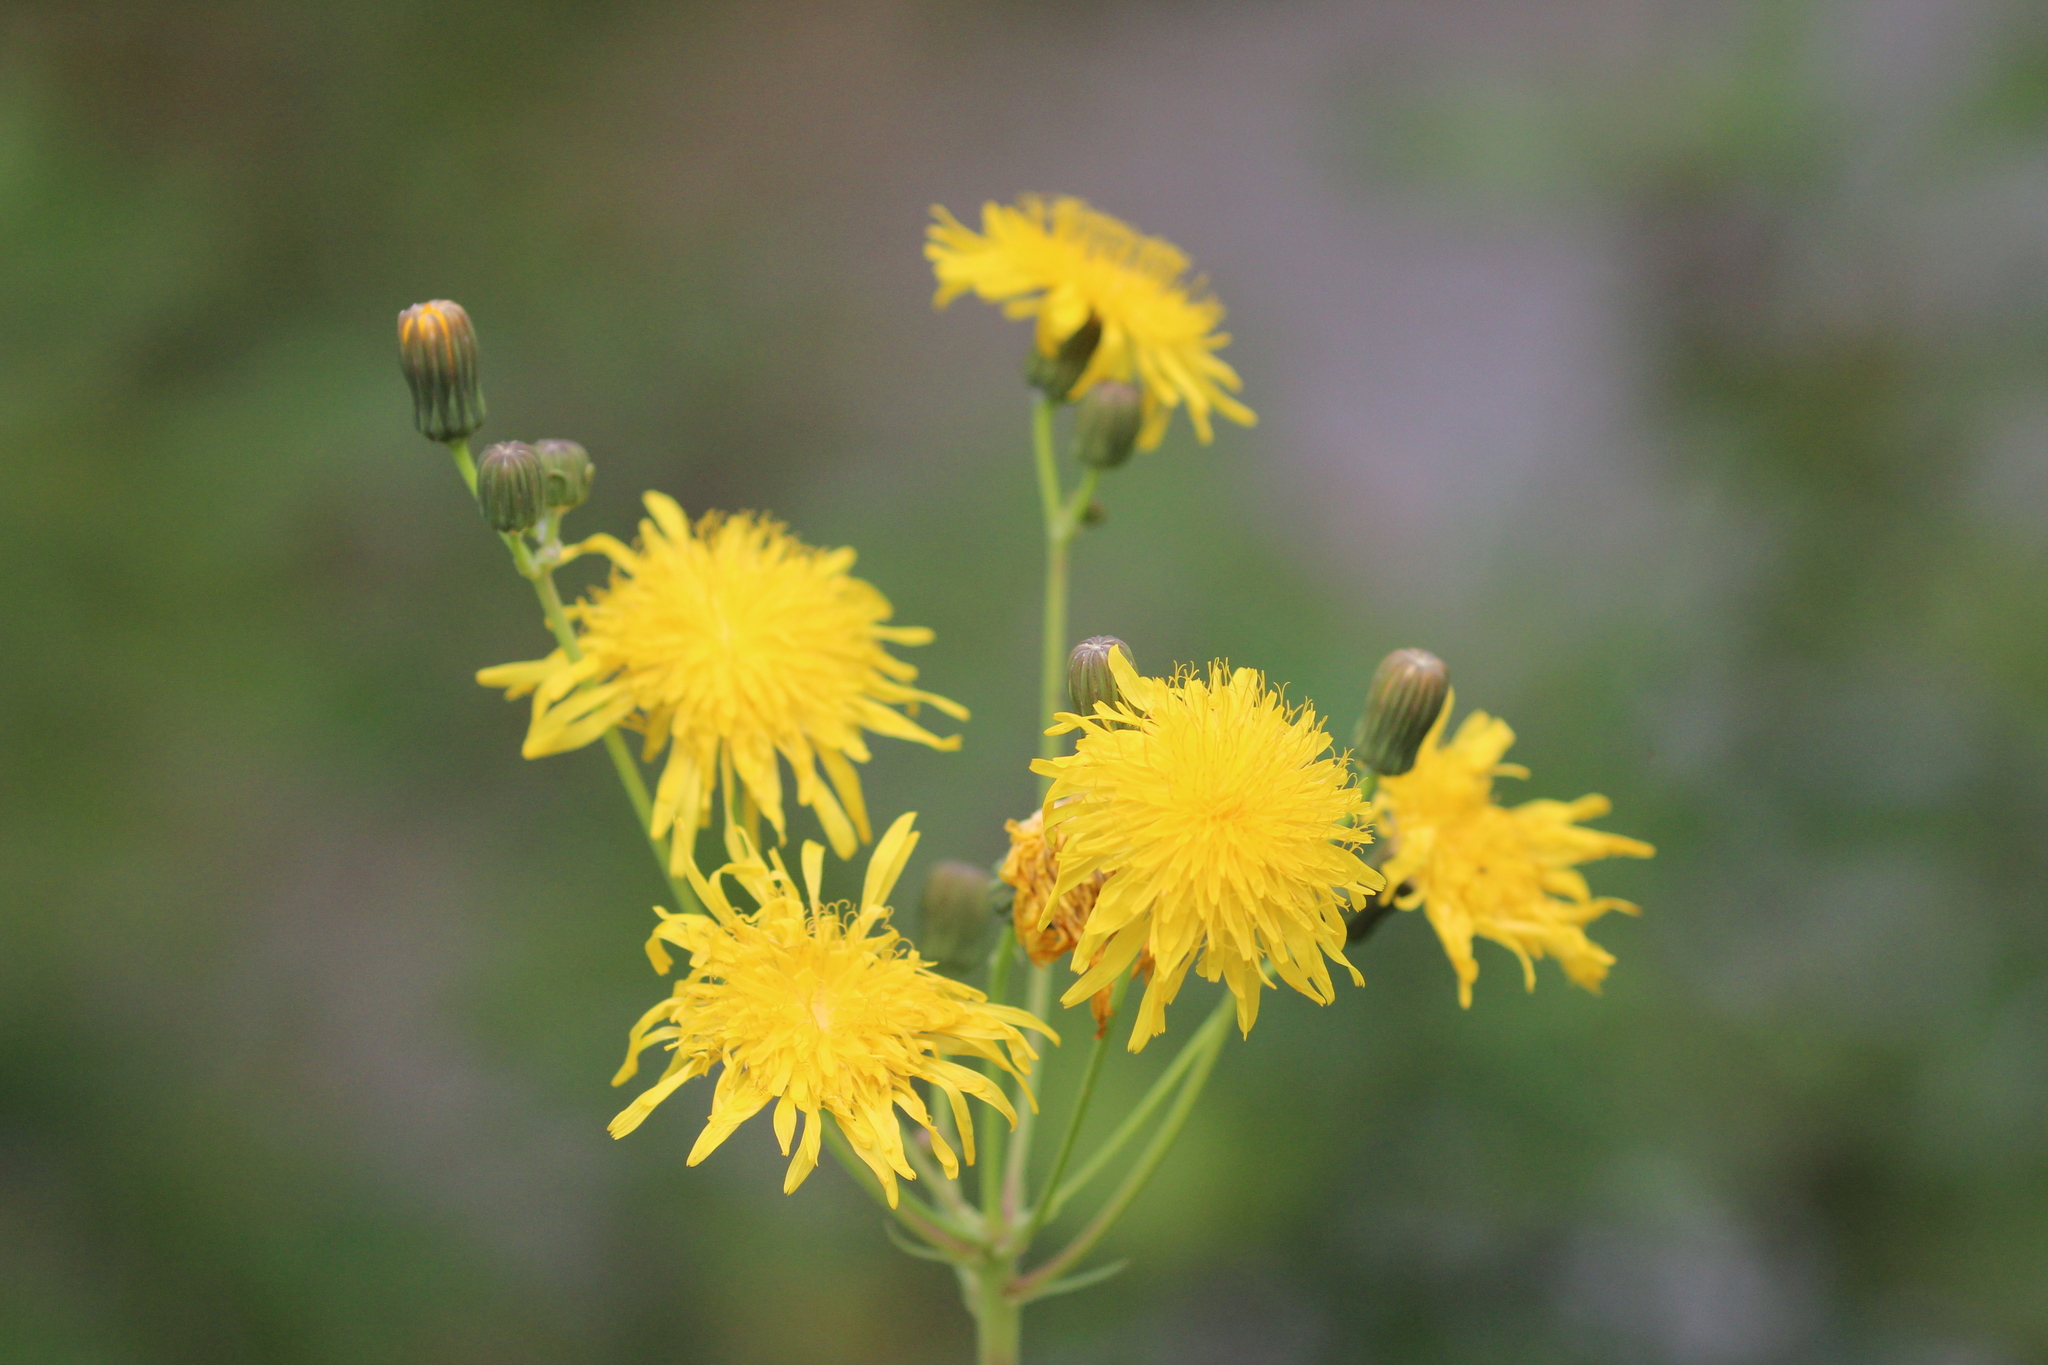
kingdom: Plantae
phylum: Tracheophyta
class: Magnoliopsida
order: Asterales
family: Asteraceae
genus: Sonchus
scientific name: Sonchus arvensis
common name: Perennial sow-thistle
